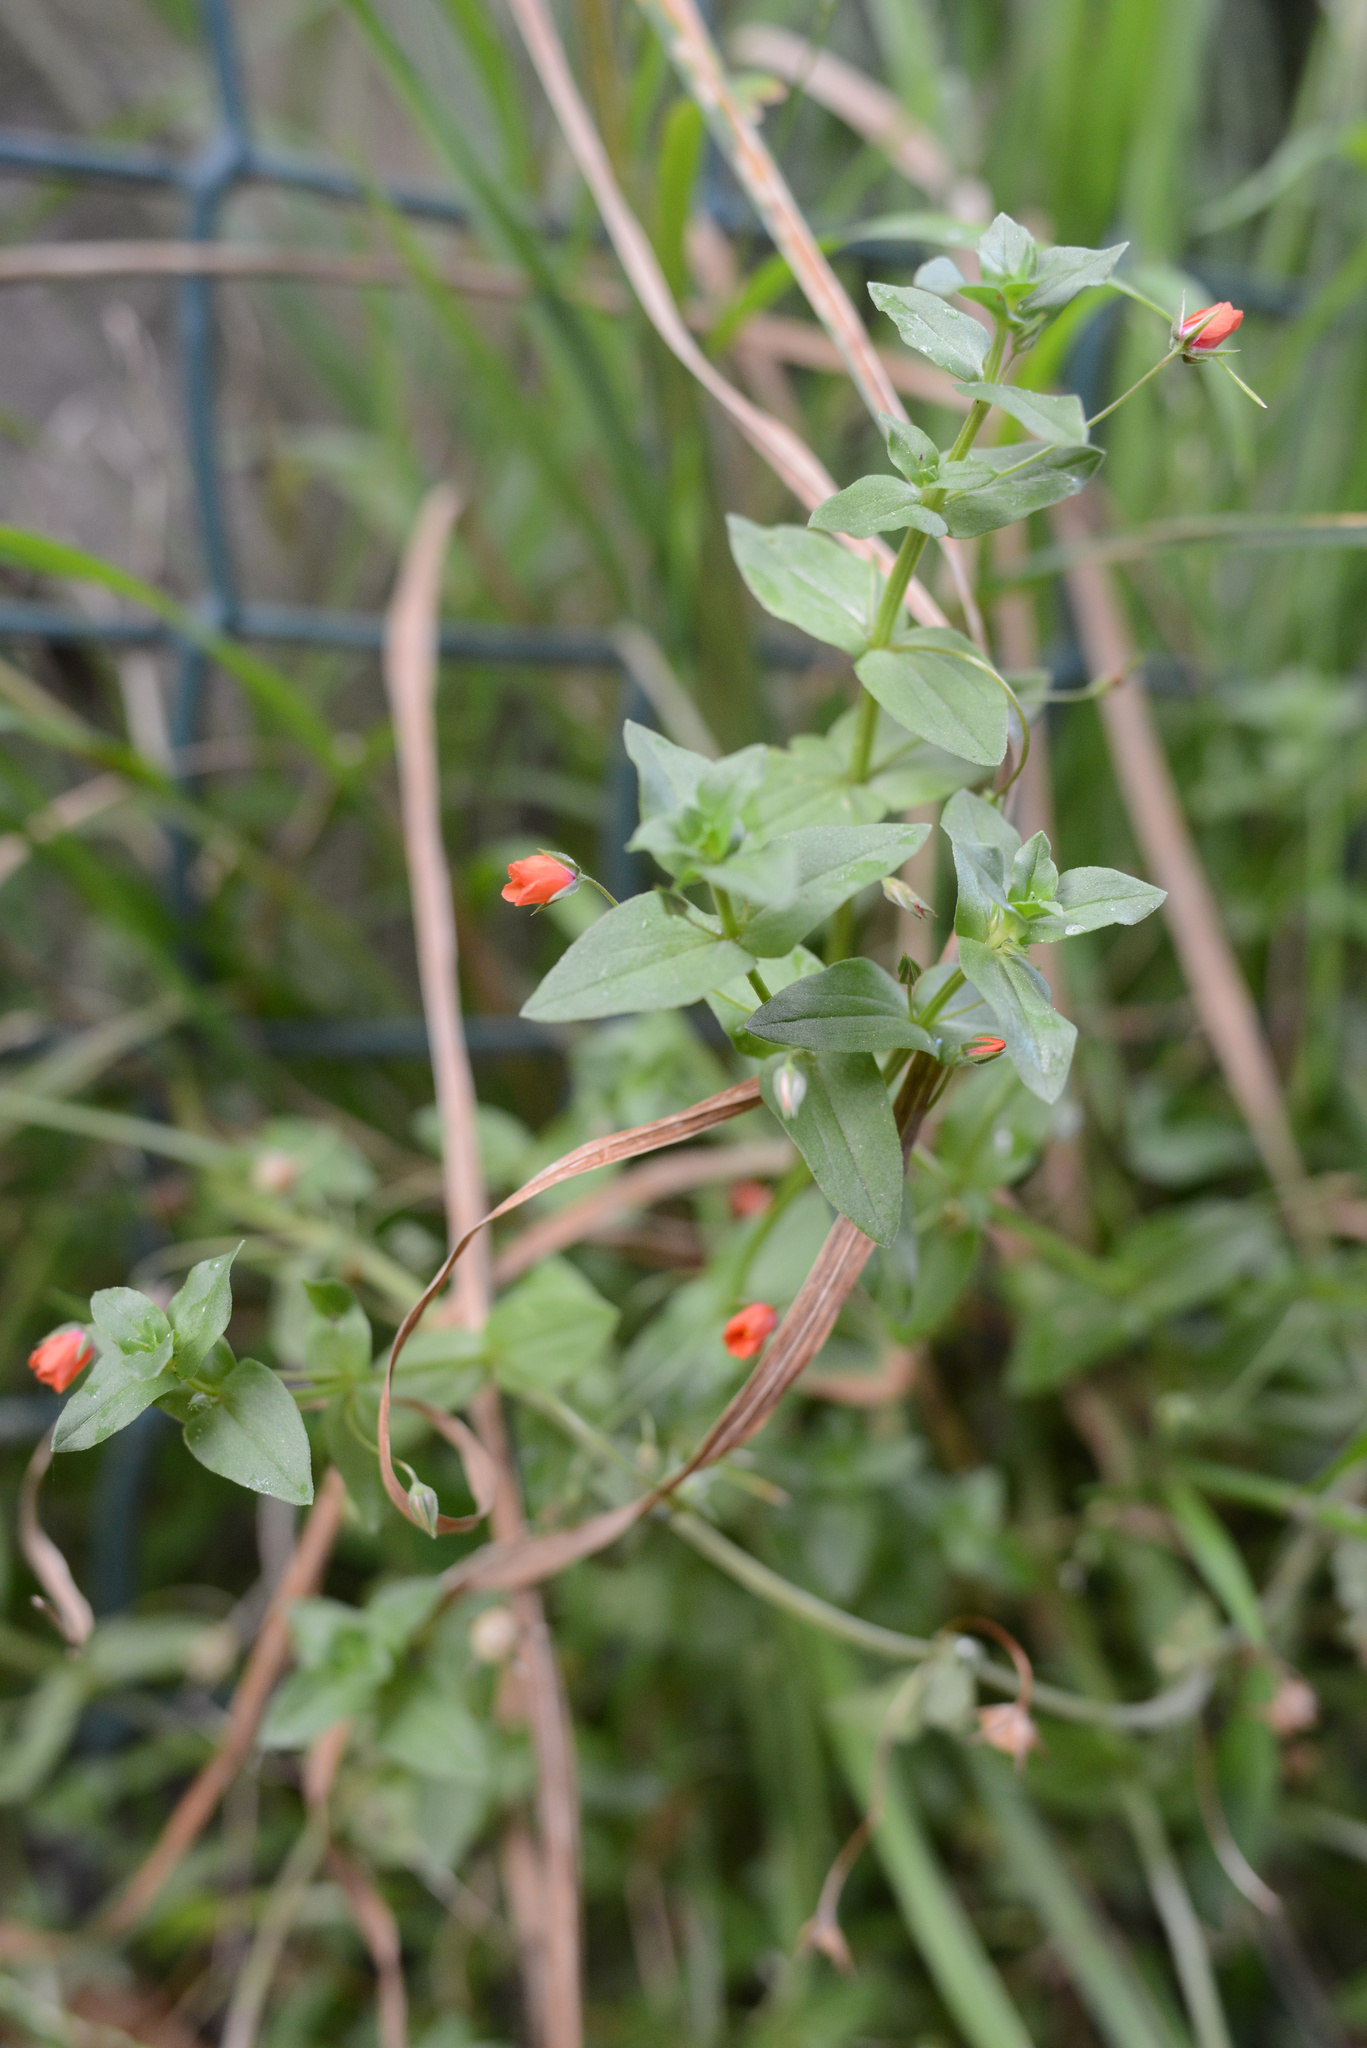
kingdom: Plantae
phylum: Tracheophyta
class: Magnoliopsida
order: Ericales
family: Primulaceae
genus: Lysimachia
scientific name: Lysimachia arvensis
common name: Scarlet pimpernel
